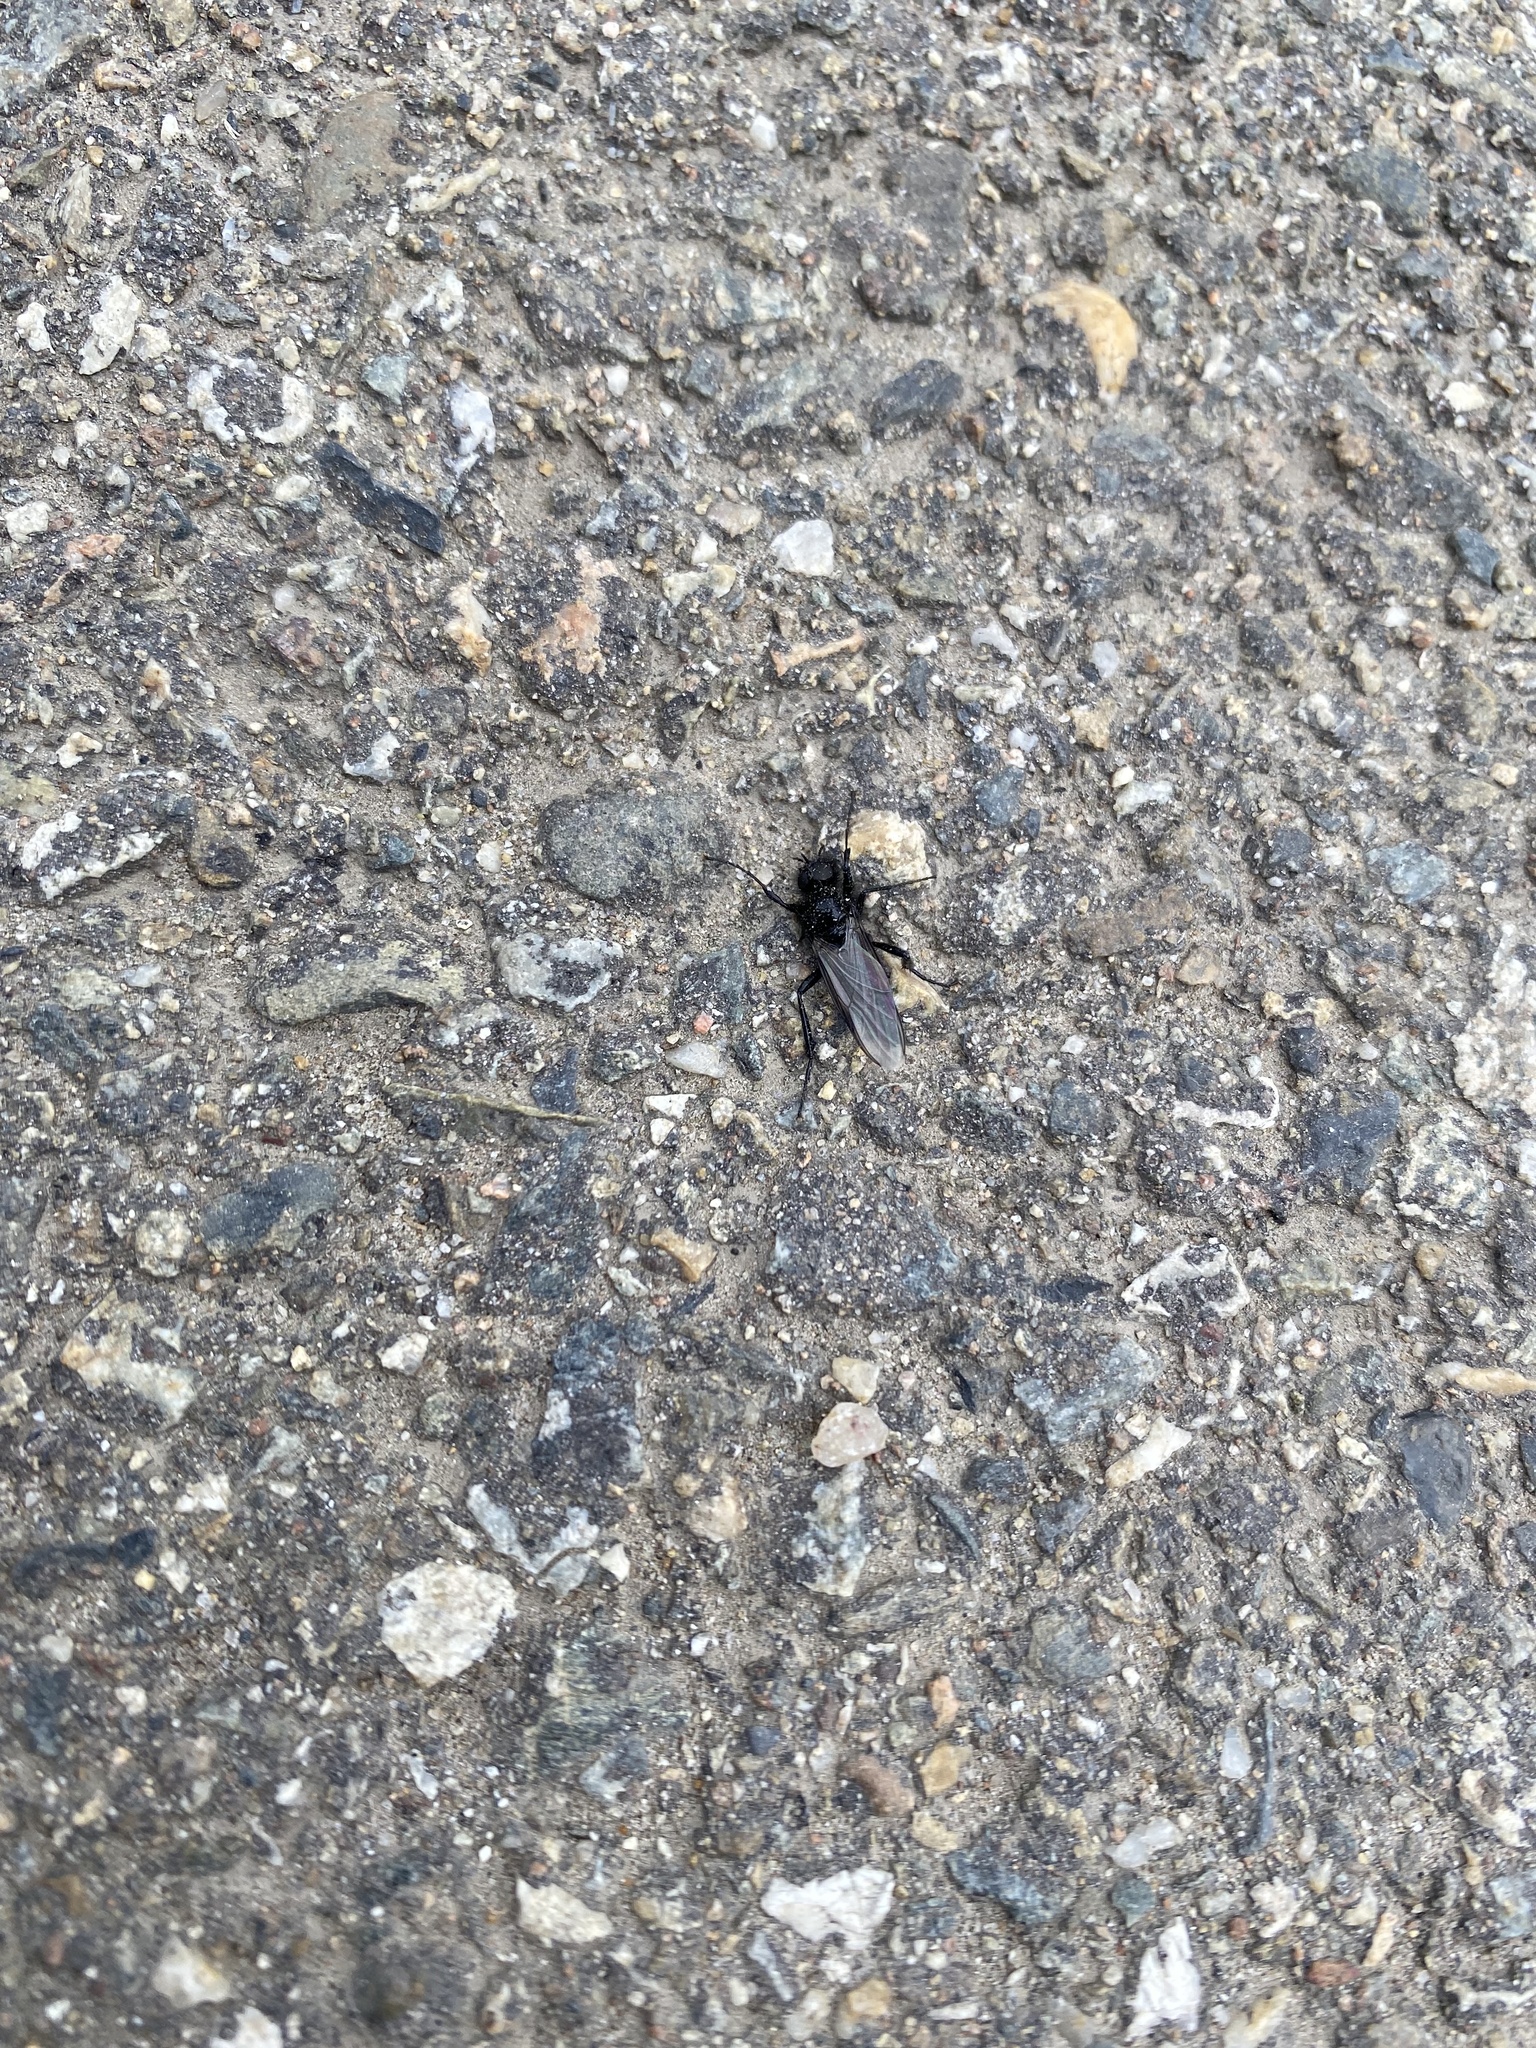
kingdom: Animalia
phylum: Arthropoda
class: Insecta
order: Diptera
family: Bibionidae
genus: Bibio
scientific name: Bibio
